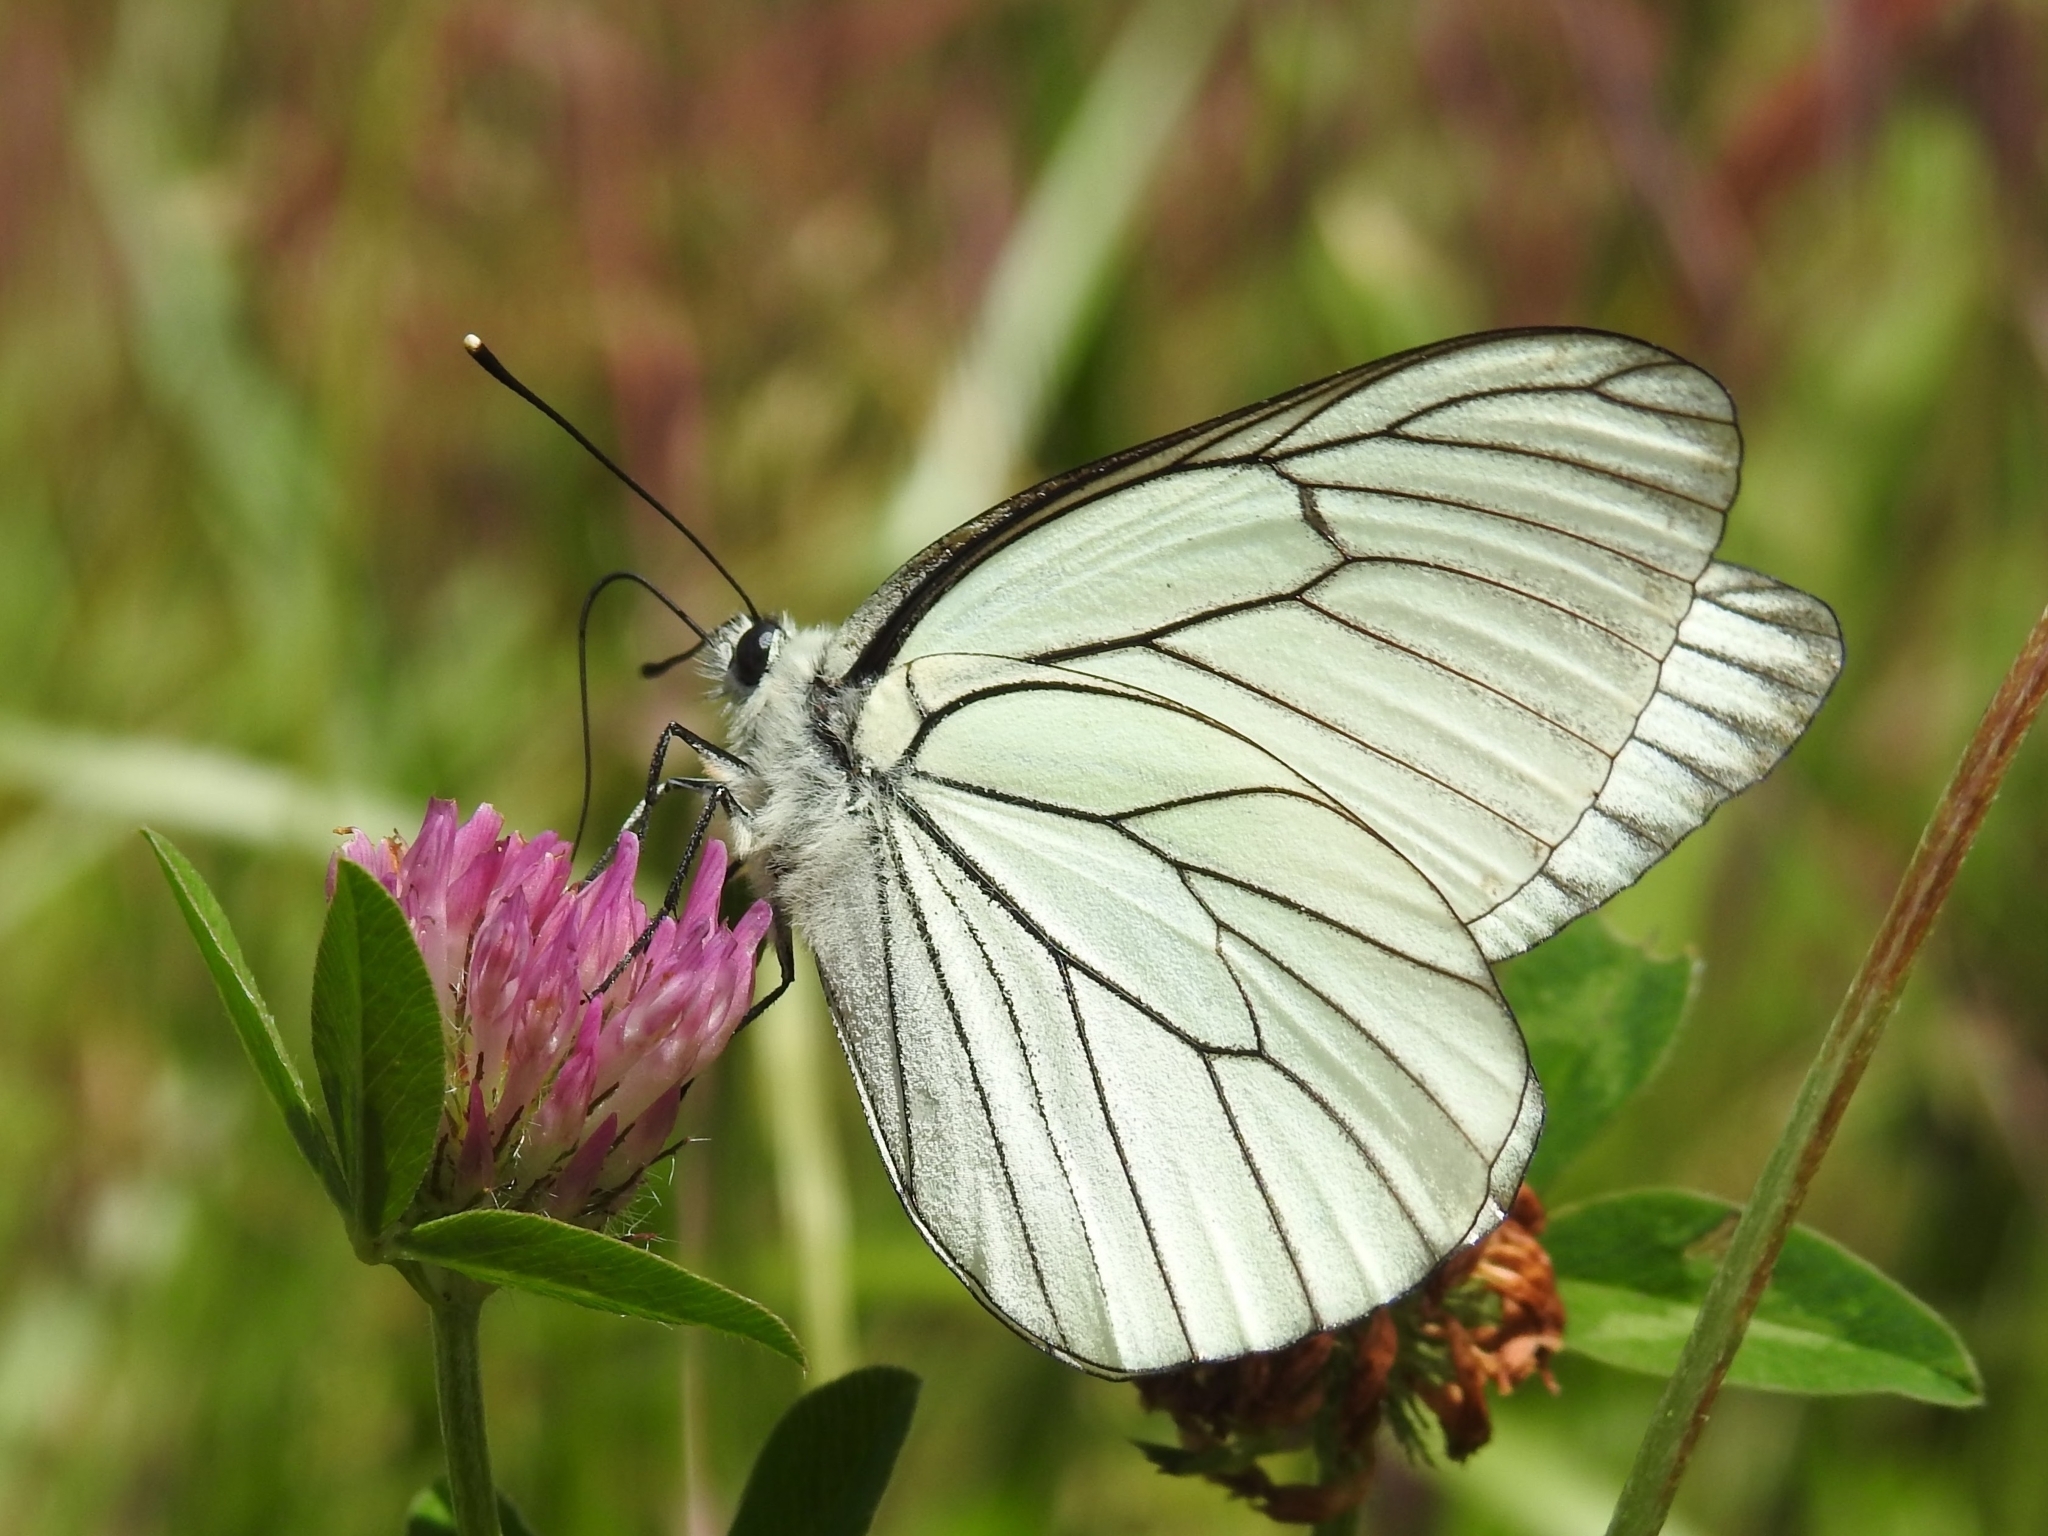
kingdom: Animalia
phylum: Arthropoda
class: Insecta
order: Lepidoptera
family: Pieridae
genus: Aporia
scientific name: Aporia crataegi
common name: Black-veined white
